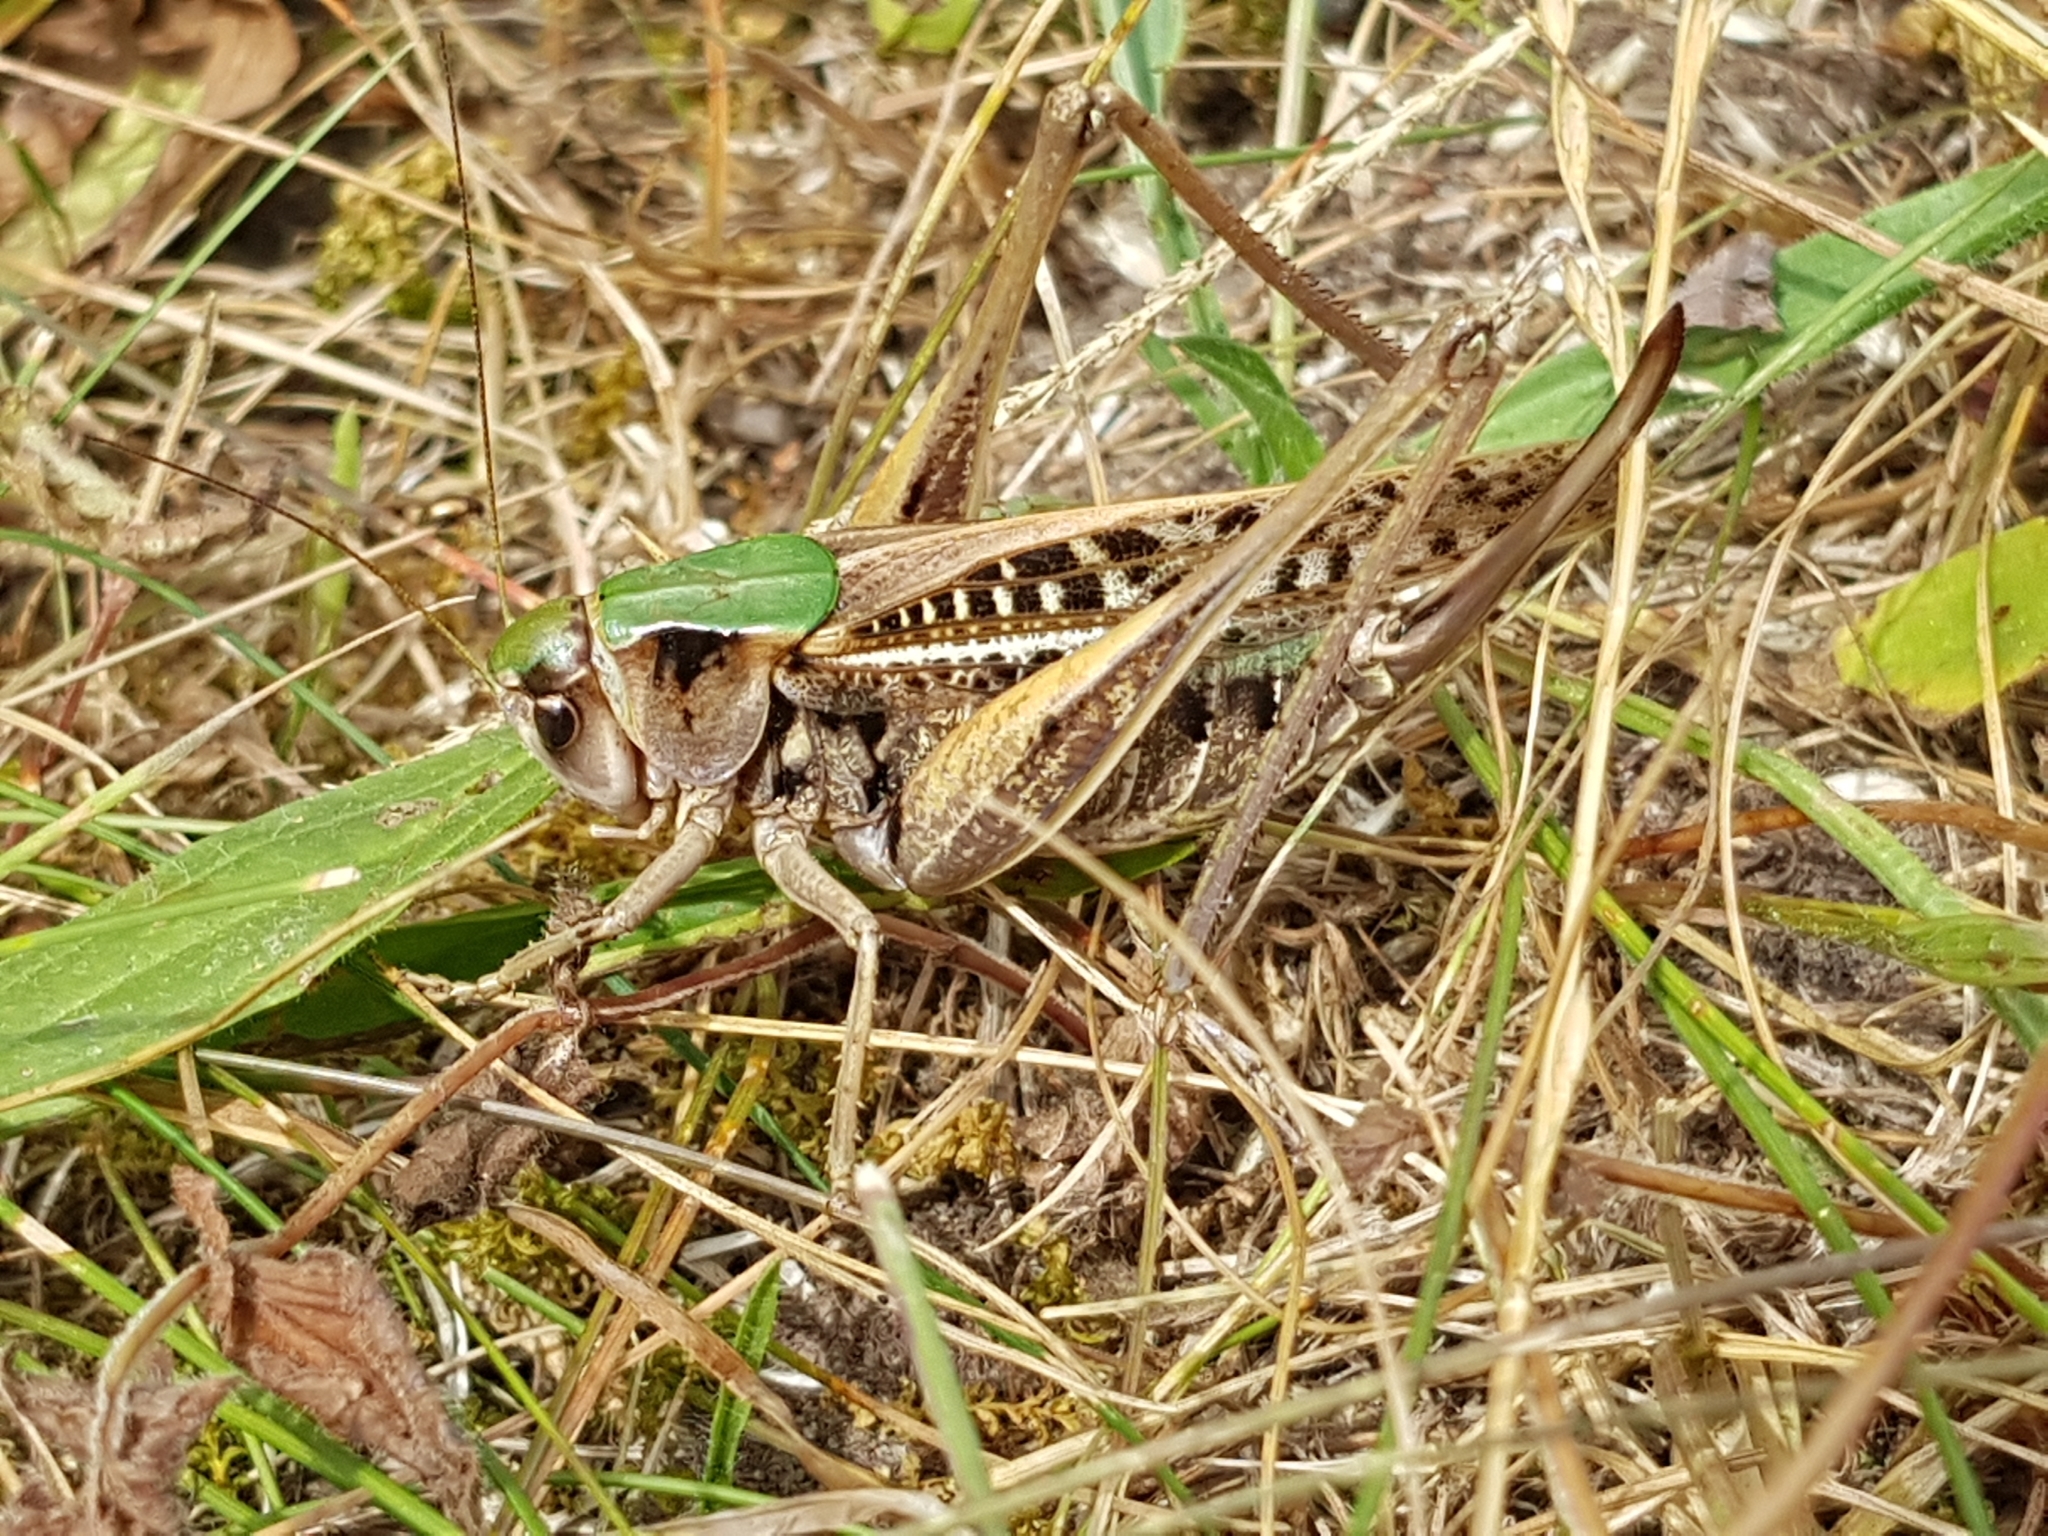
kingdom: Animalia
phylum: Arthropoda
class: Insecta
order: Orthoptera
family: Tettigoniidae
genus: Decticus
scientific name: Decticus verrucivorus
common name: Wart-biter
